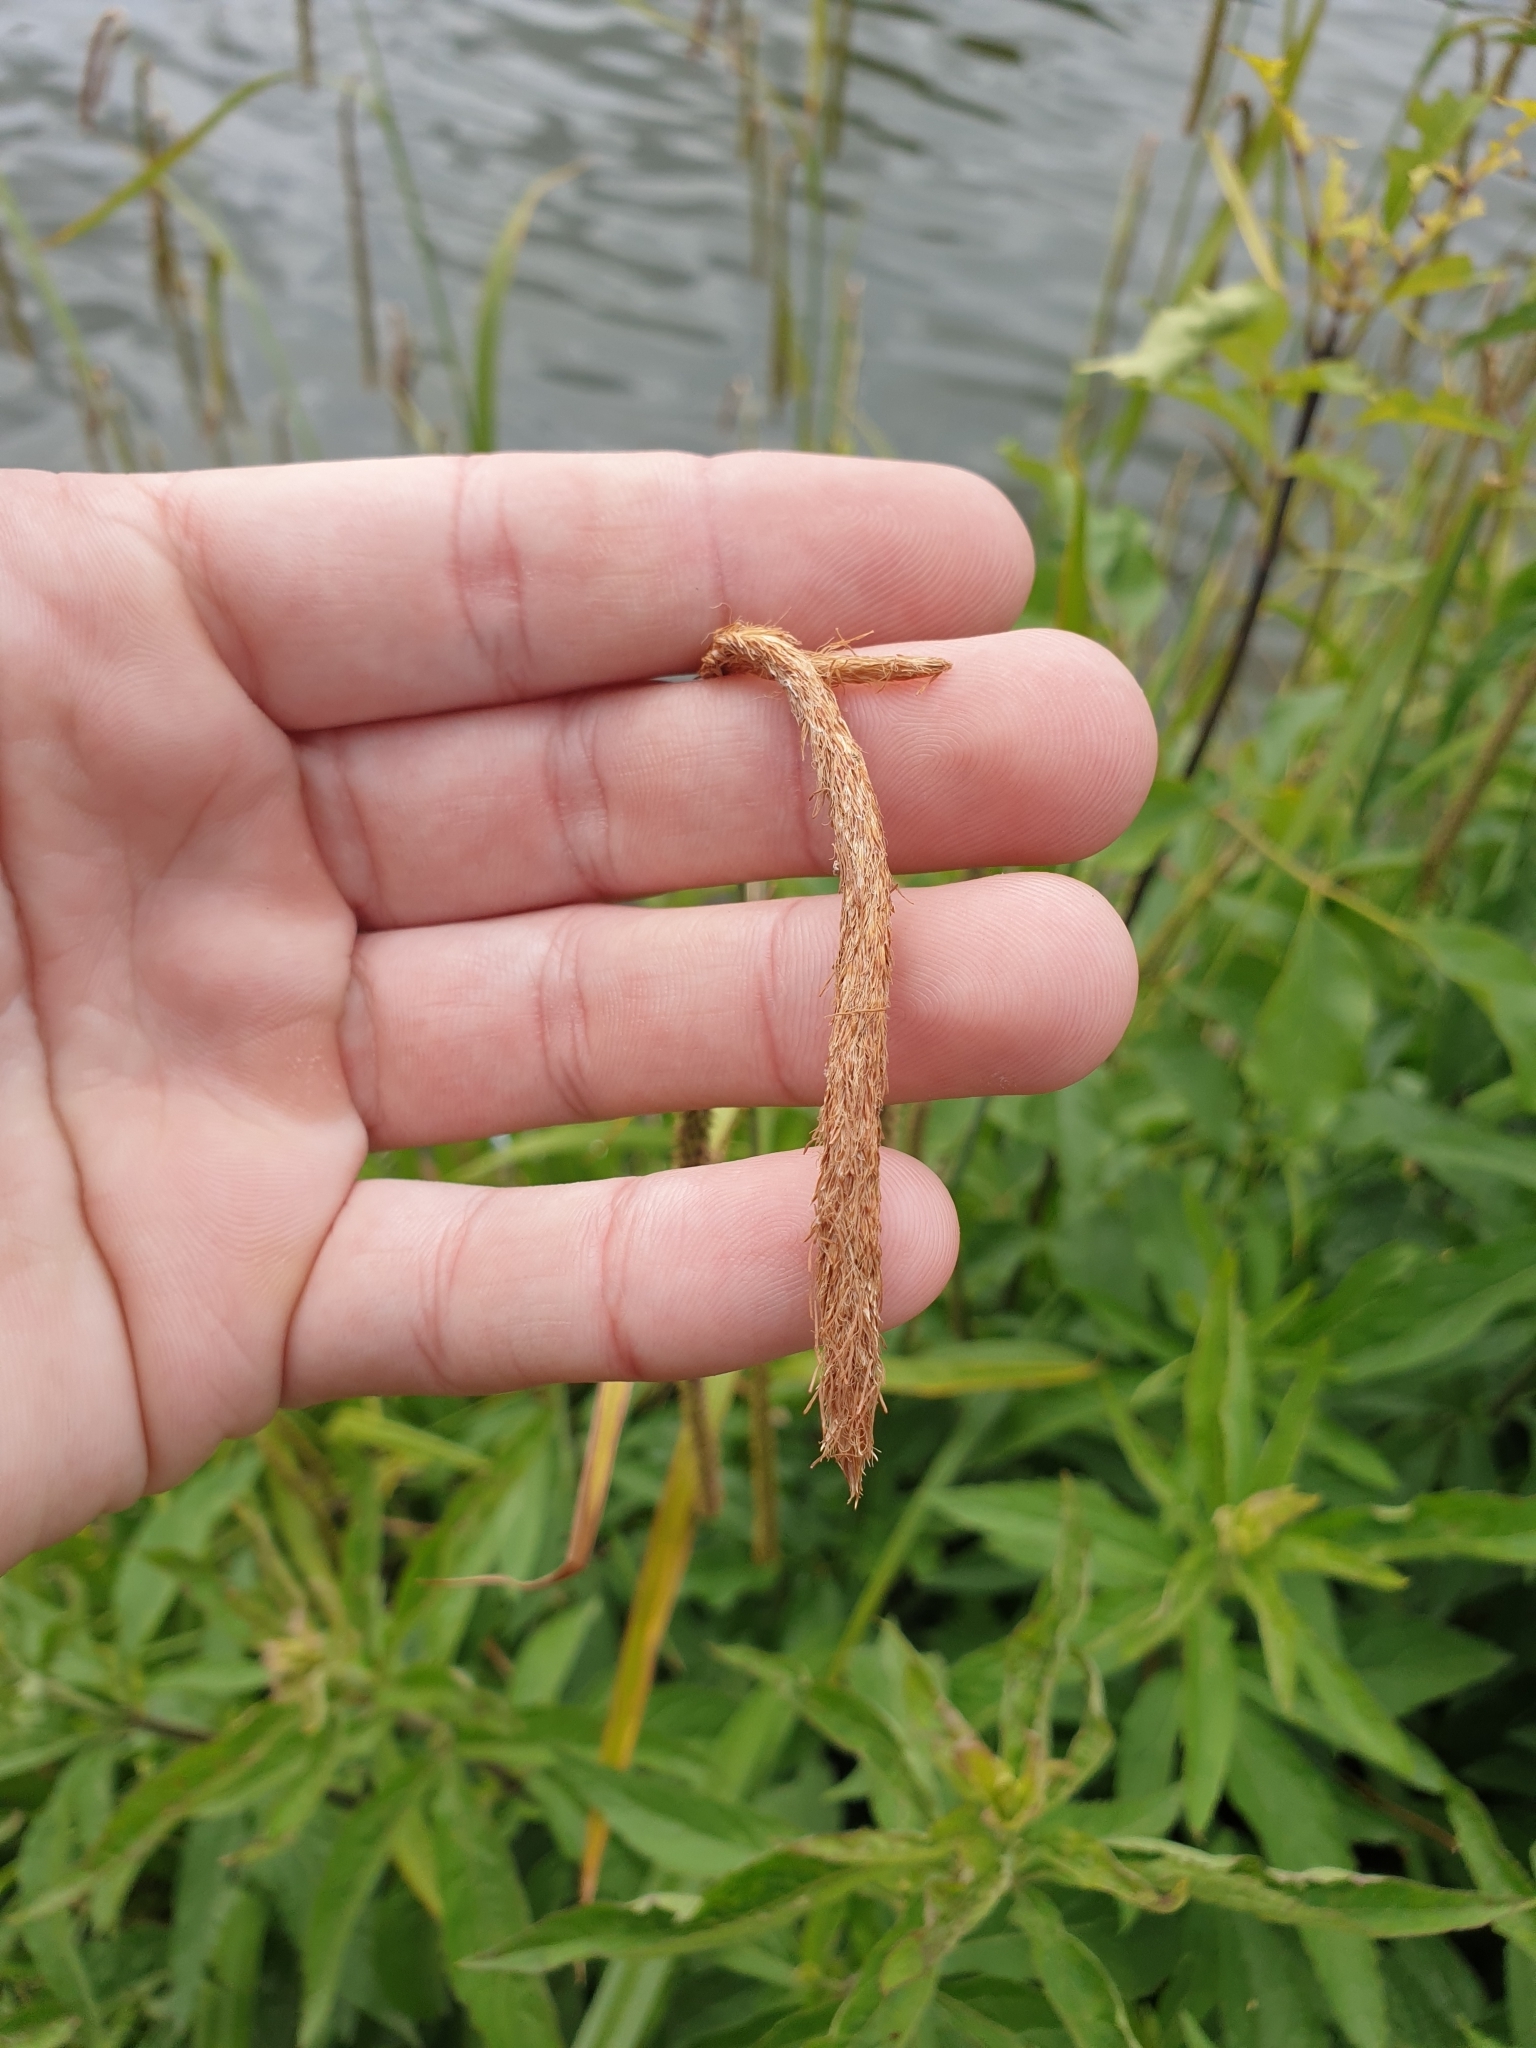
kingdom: Plantae
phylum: Tracheophyta
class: Liliopsida
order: Poales
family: Cyperaceae
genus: Carex
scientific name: Carex pendula
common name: Pendulous sedge
